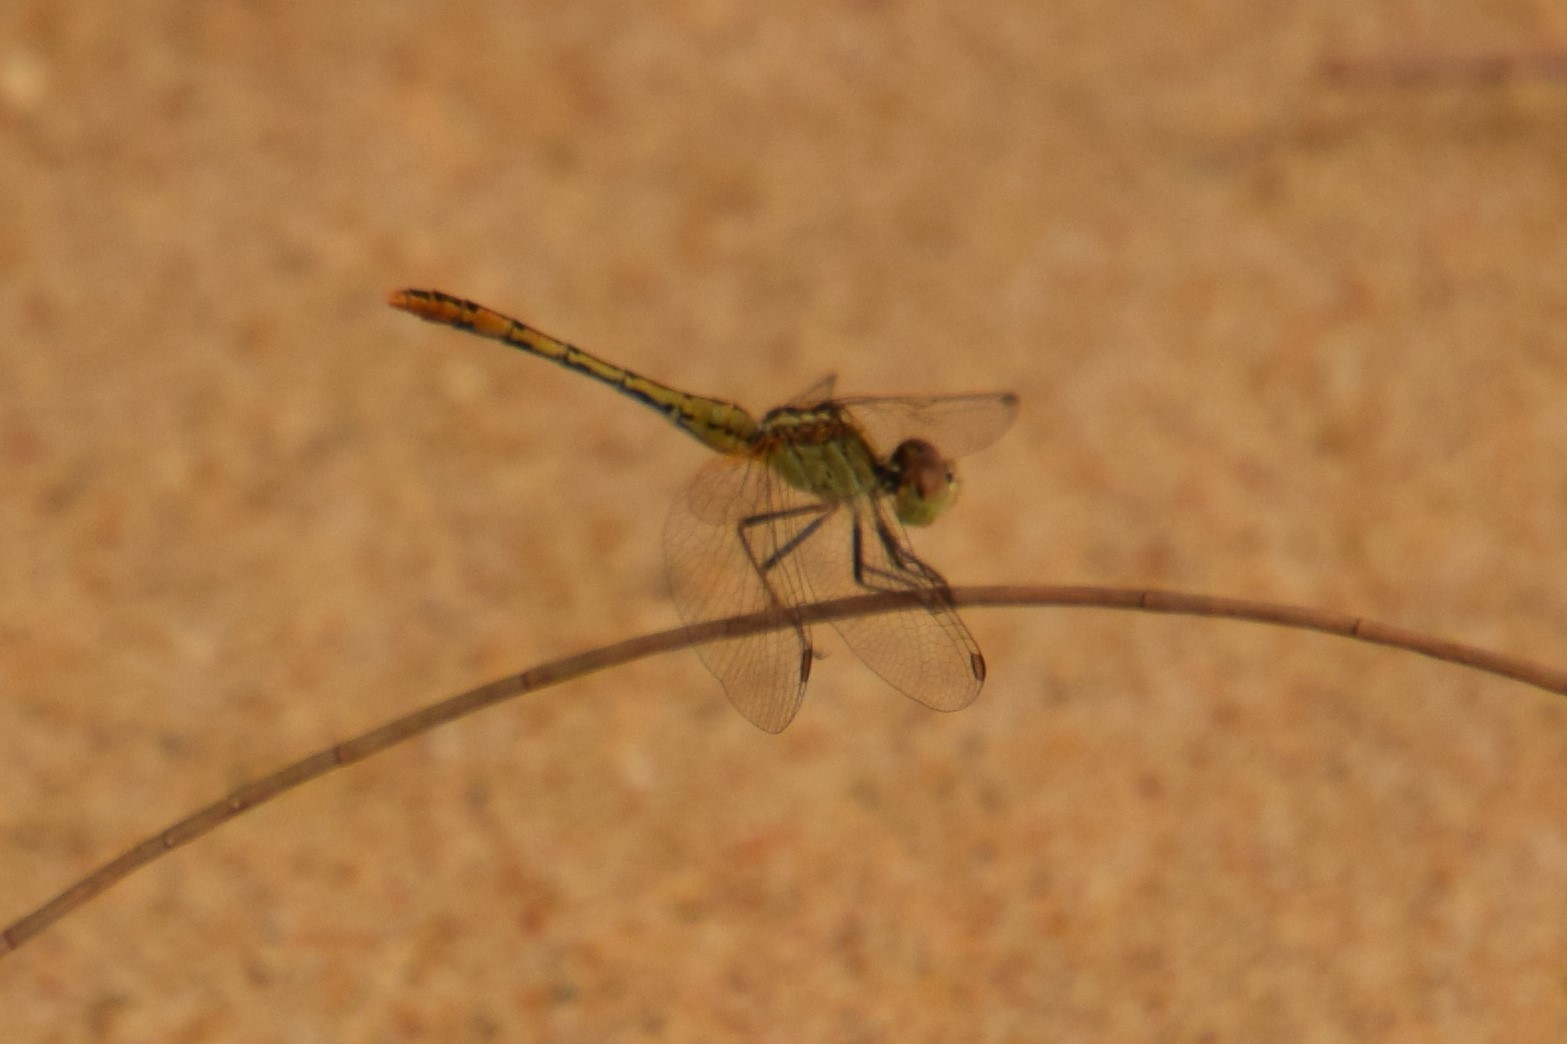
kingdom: Animalia
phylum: Arthropoda
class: Insecta
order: Odonata
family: Libellulidae
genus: Diplacodes
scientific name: Diplacodes bipunctata
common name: Red percher dragonfly
